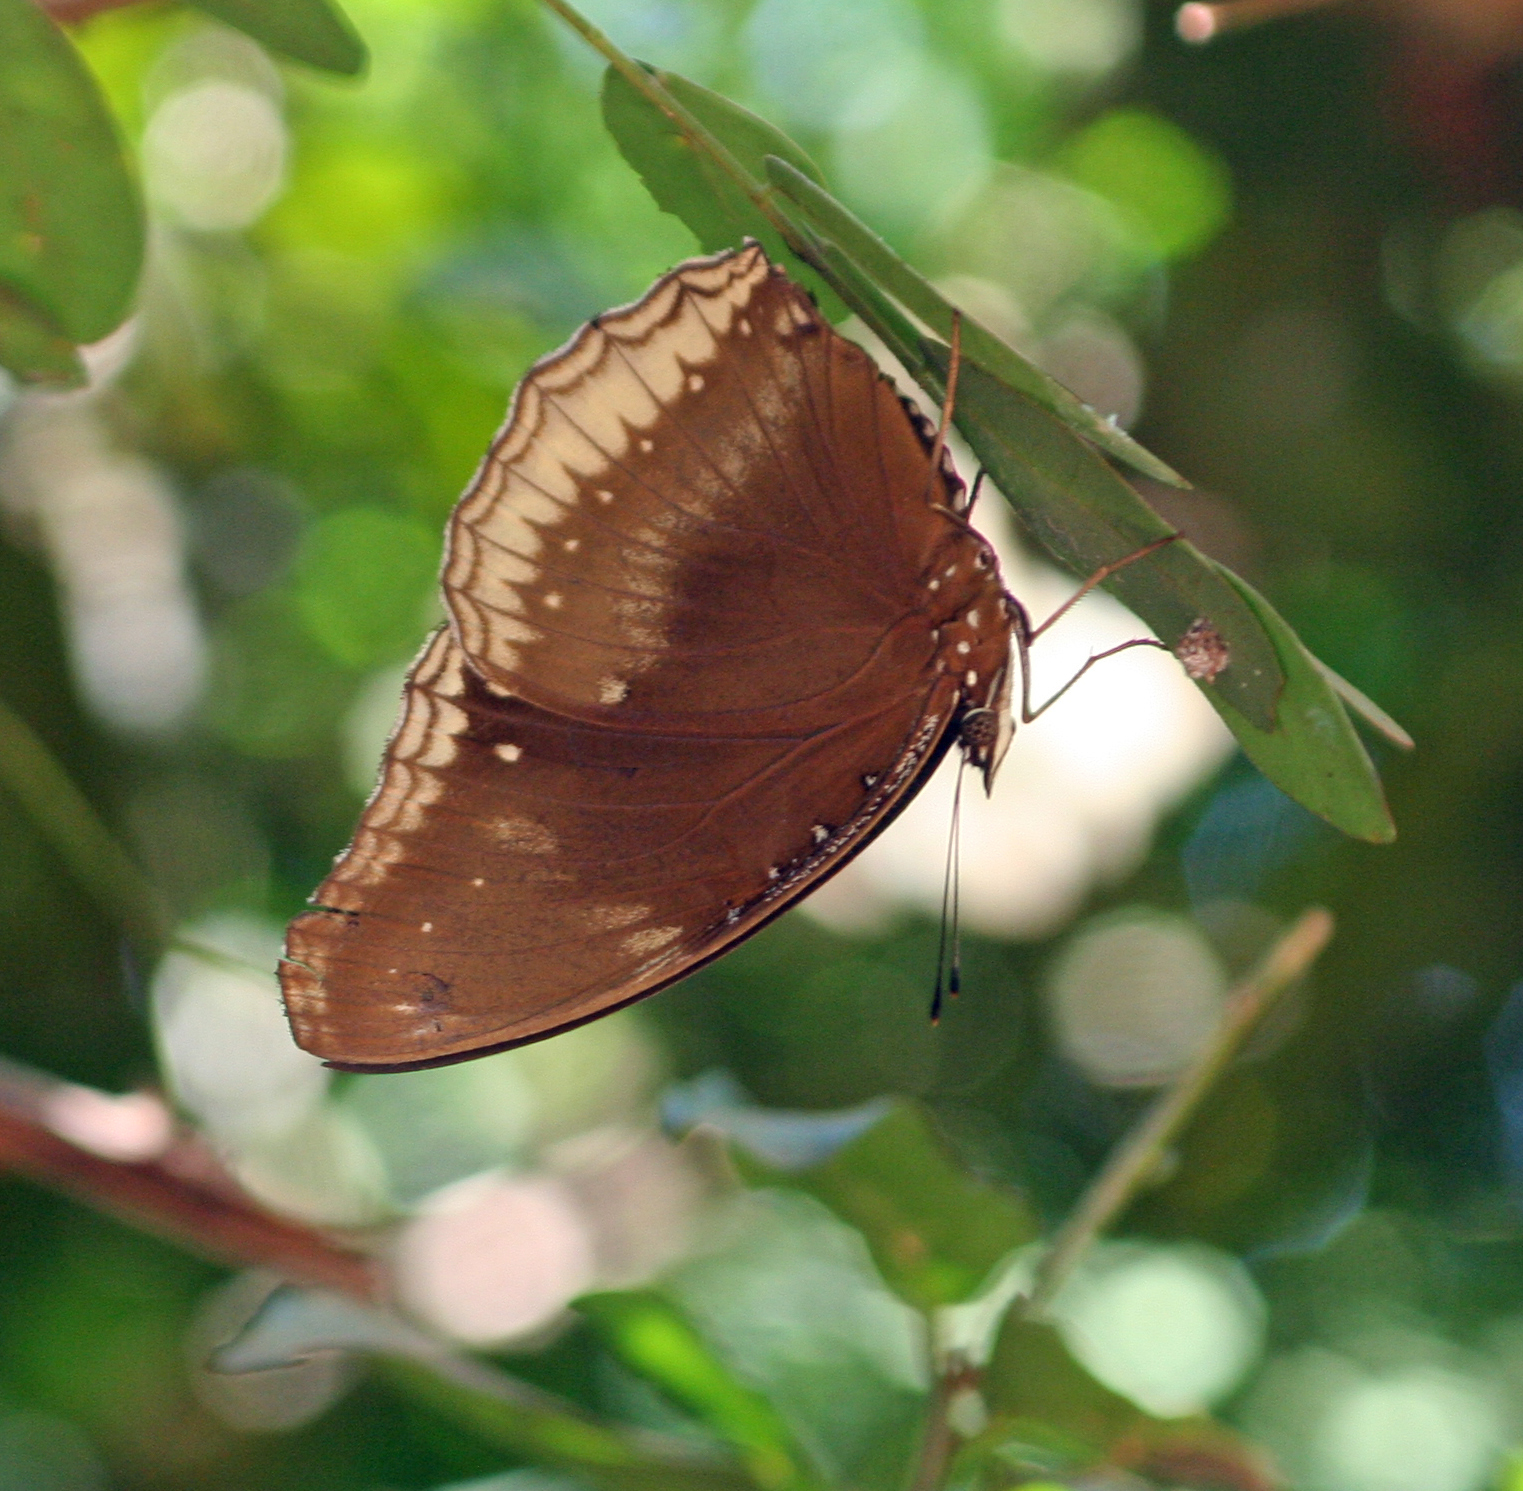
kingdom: Animalia
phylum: Arthropoda
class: Insecta
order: Lepidoptera
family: Nymphalidae
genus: Hypolimnas
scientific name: Hypolimnas bolina
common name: Great eggfly
